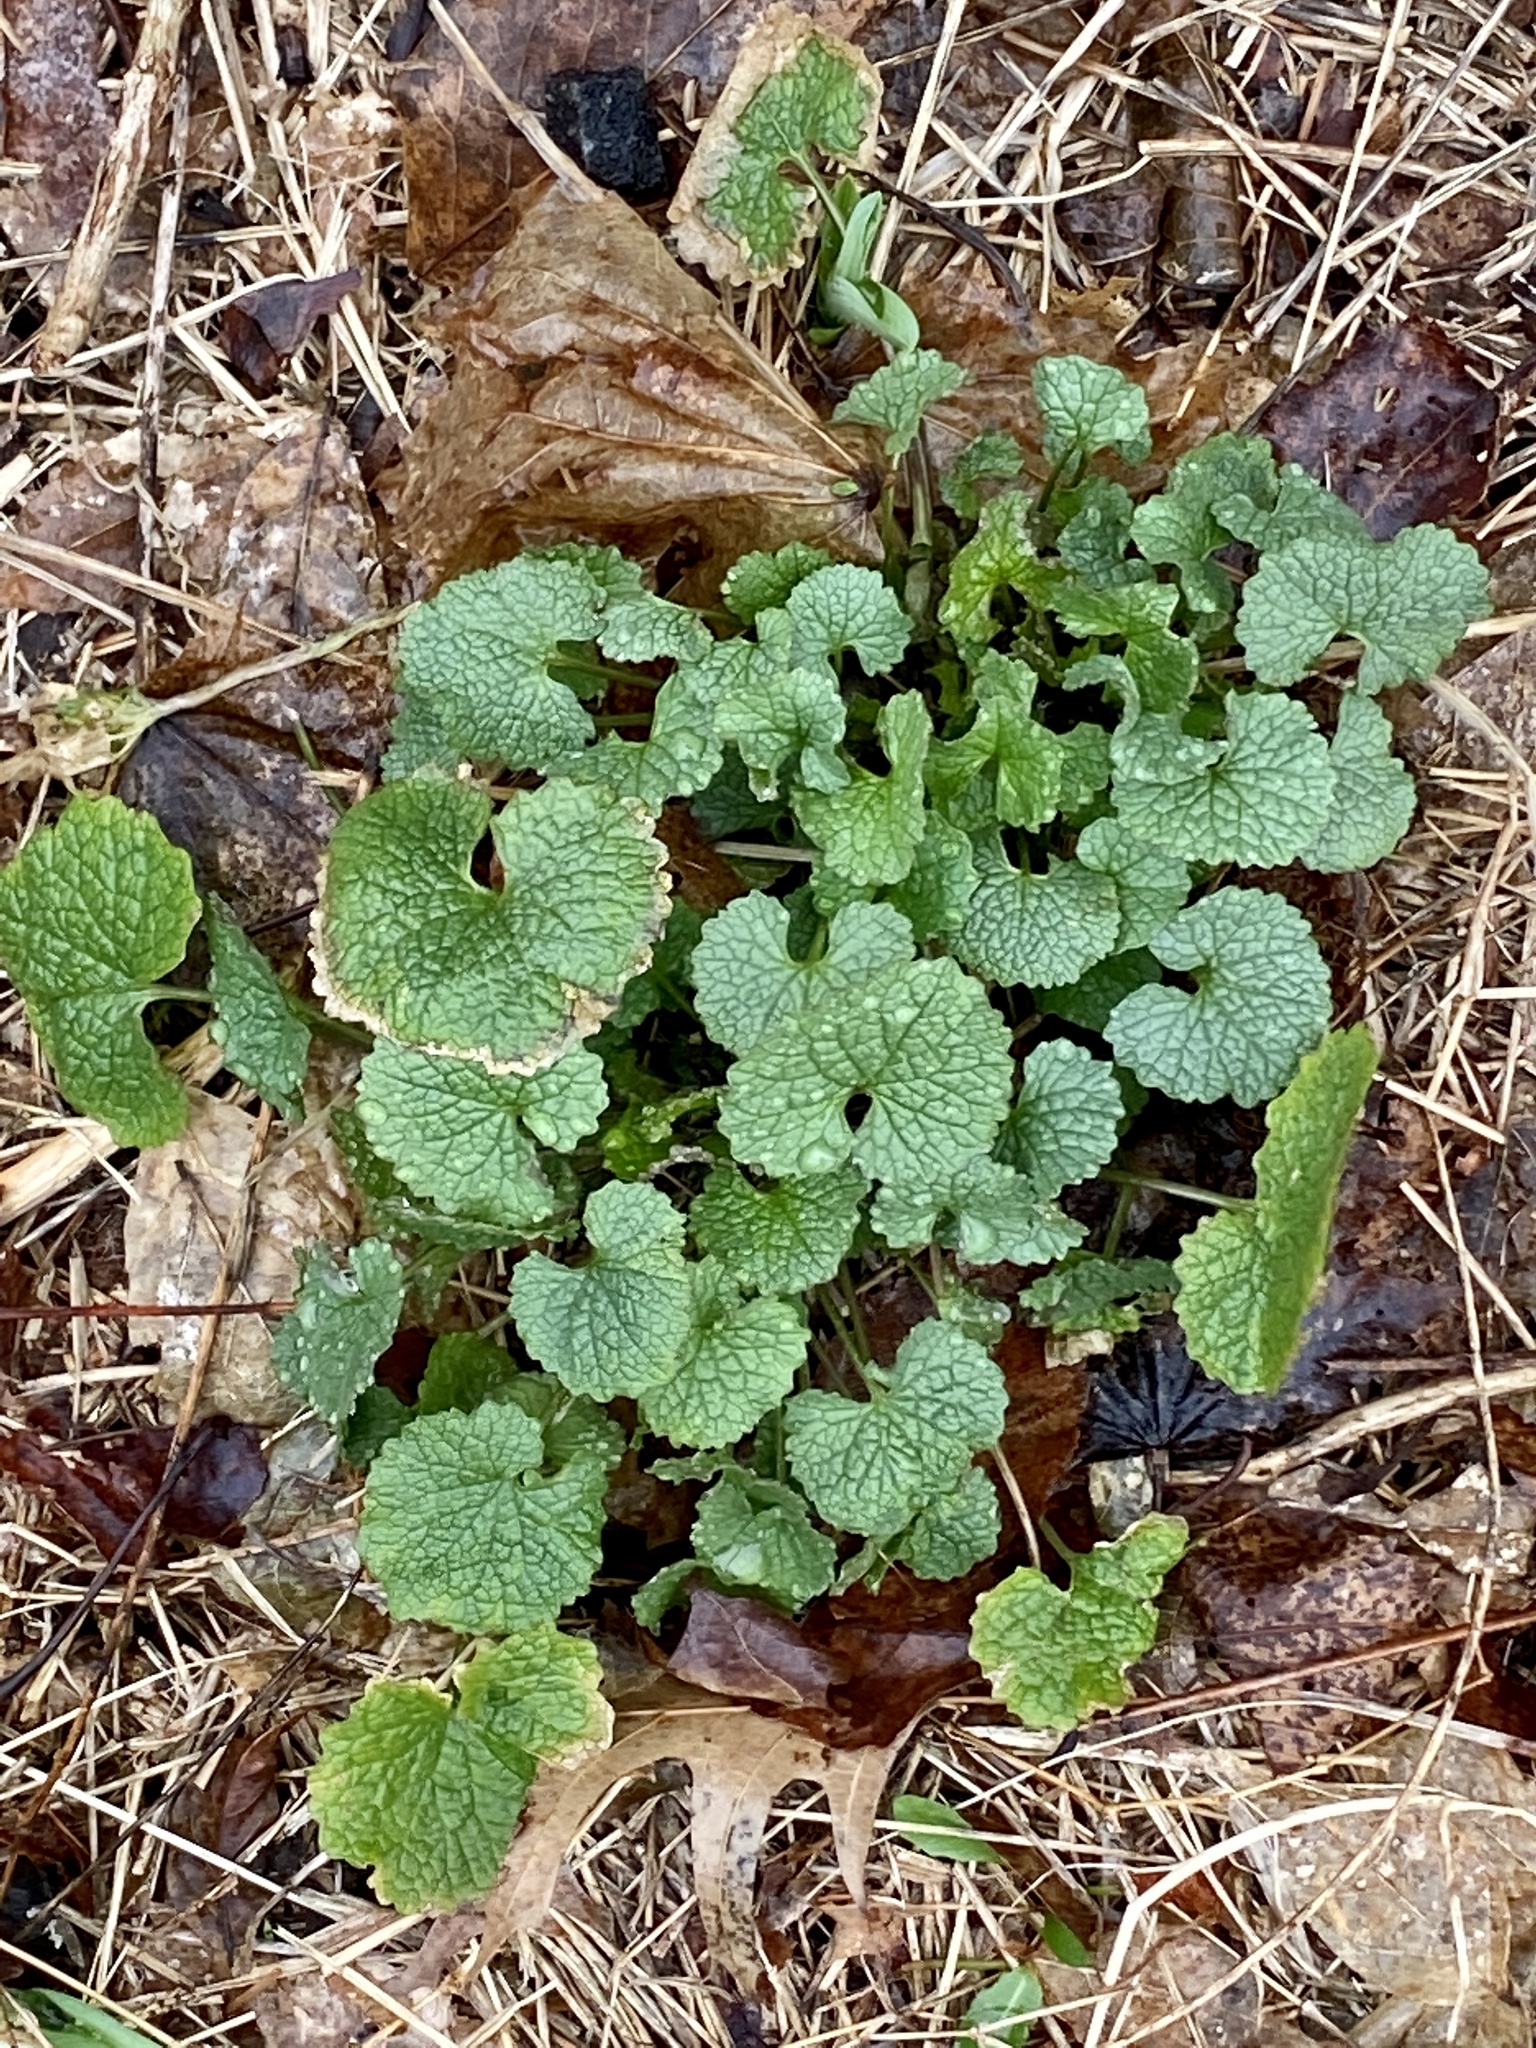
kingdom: Plantae
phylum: Tracheophyta
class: Magnoliopsida
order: Brassicales
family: Brassicaceae
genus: Alliaria
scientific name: Alliaria petiolata
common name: Garlic mustard
